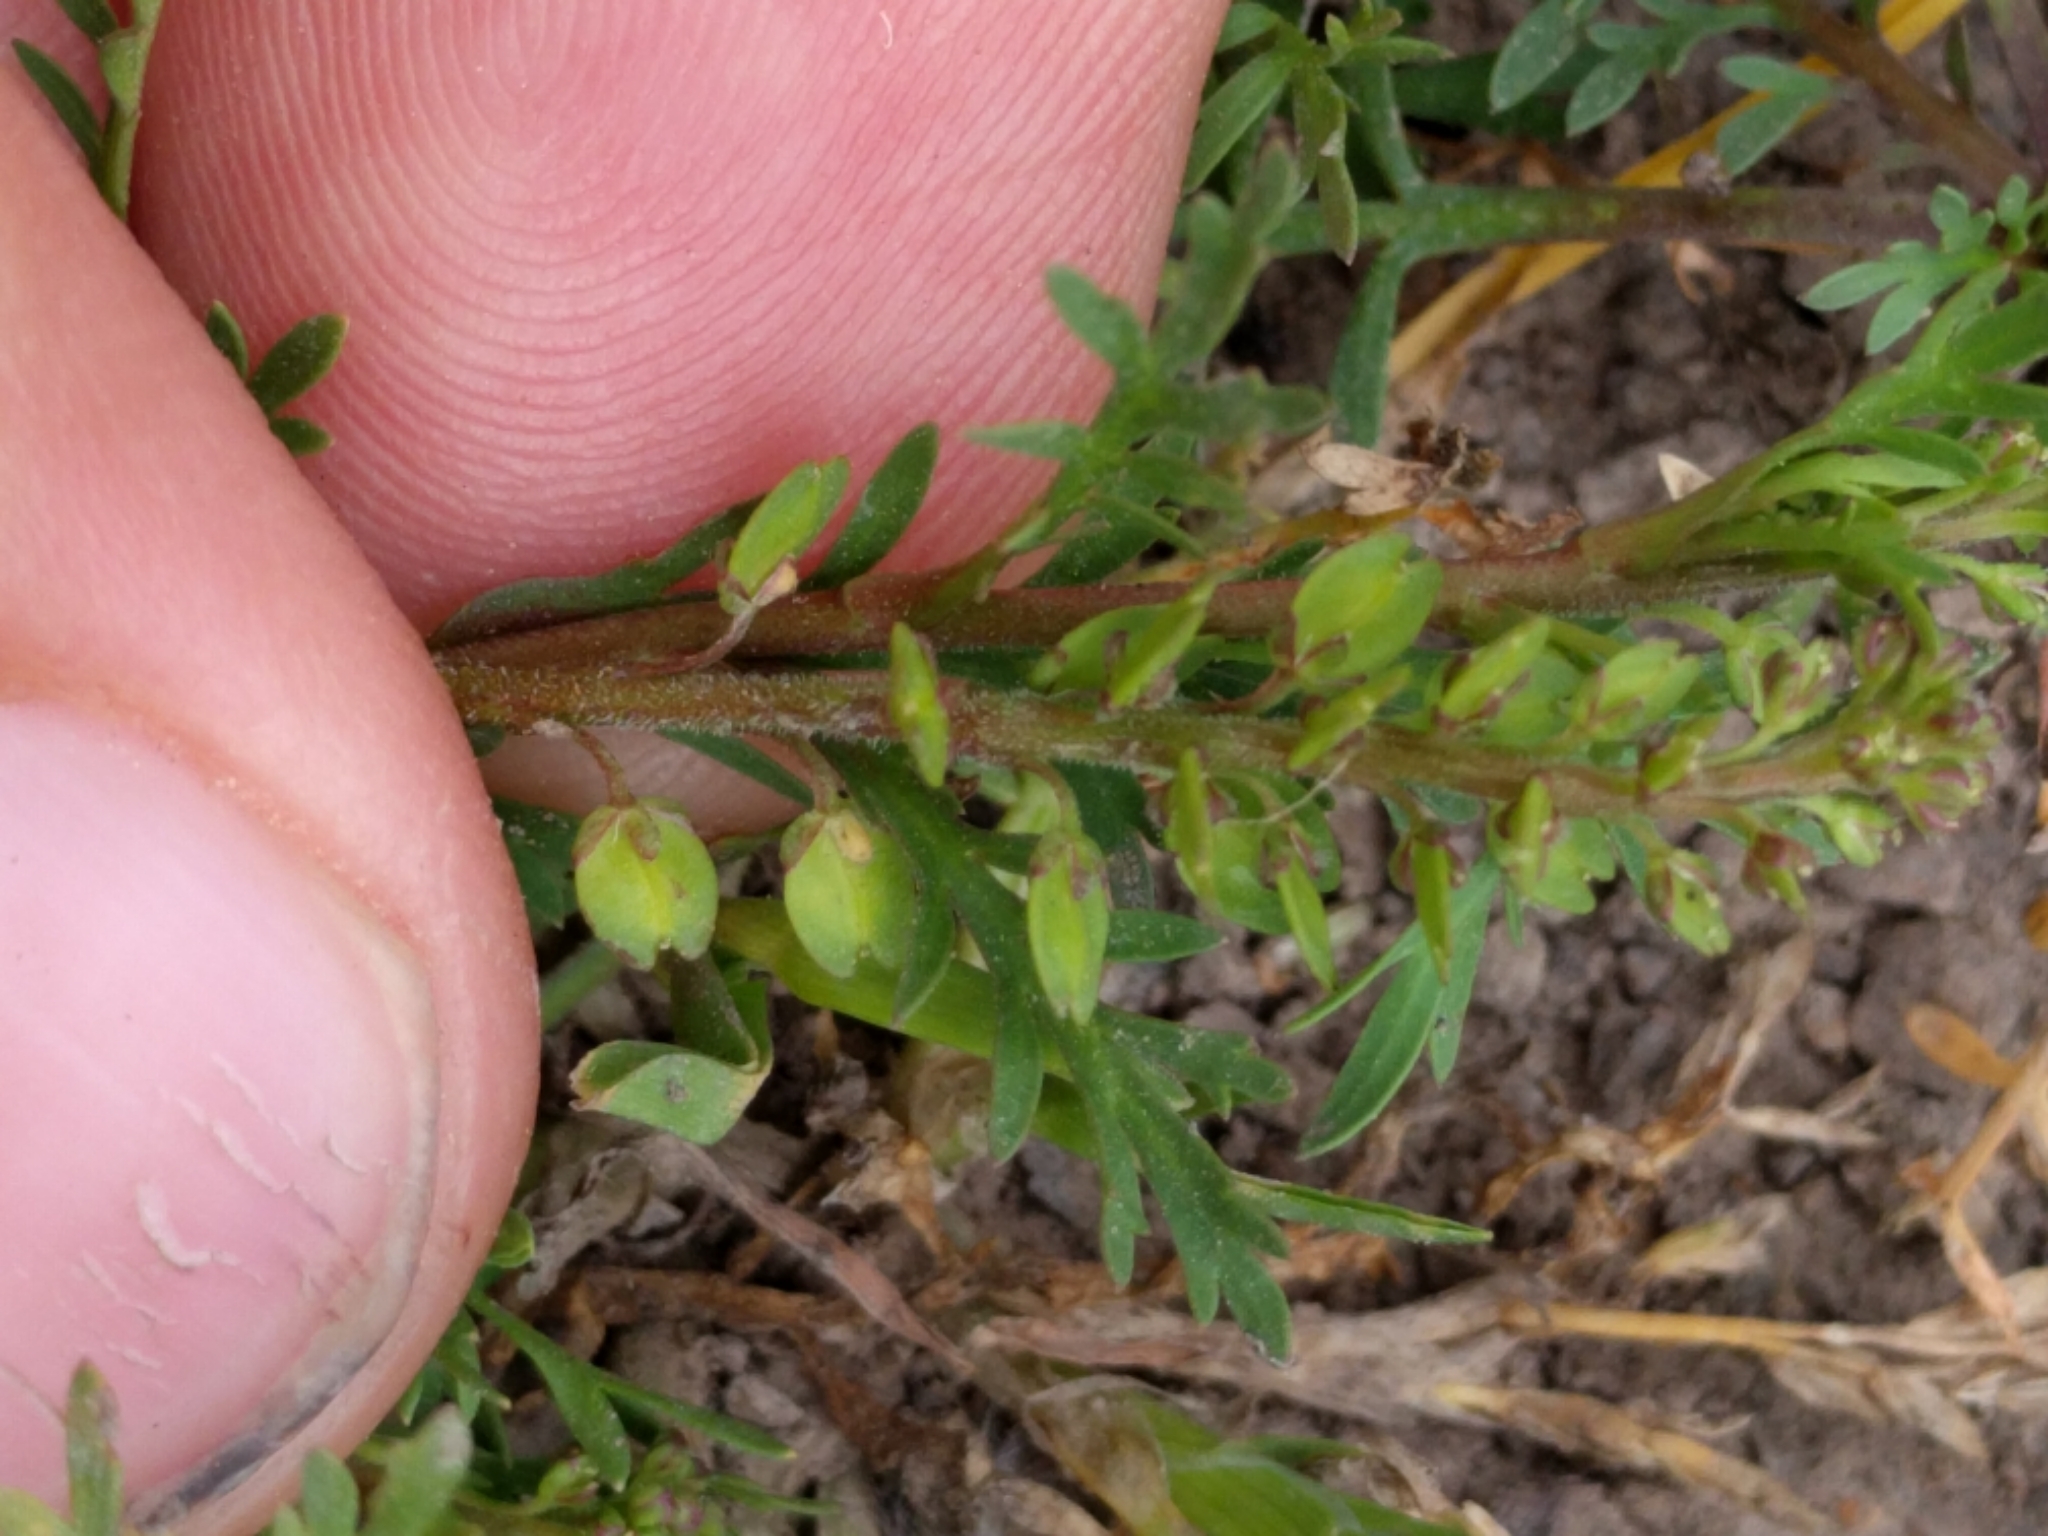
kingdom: Plantae
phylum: Tracheophyta
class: Magnoliopsida
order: Brassicales
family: Brassicaceae
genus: Lepidium
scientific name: Lepidium strictum
